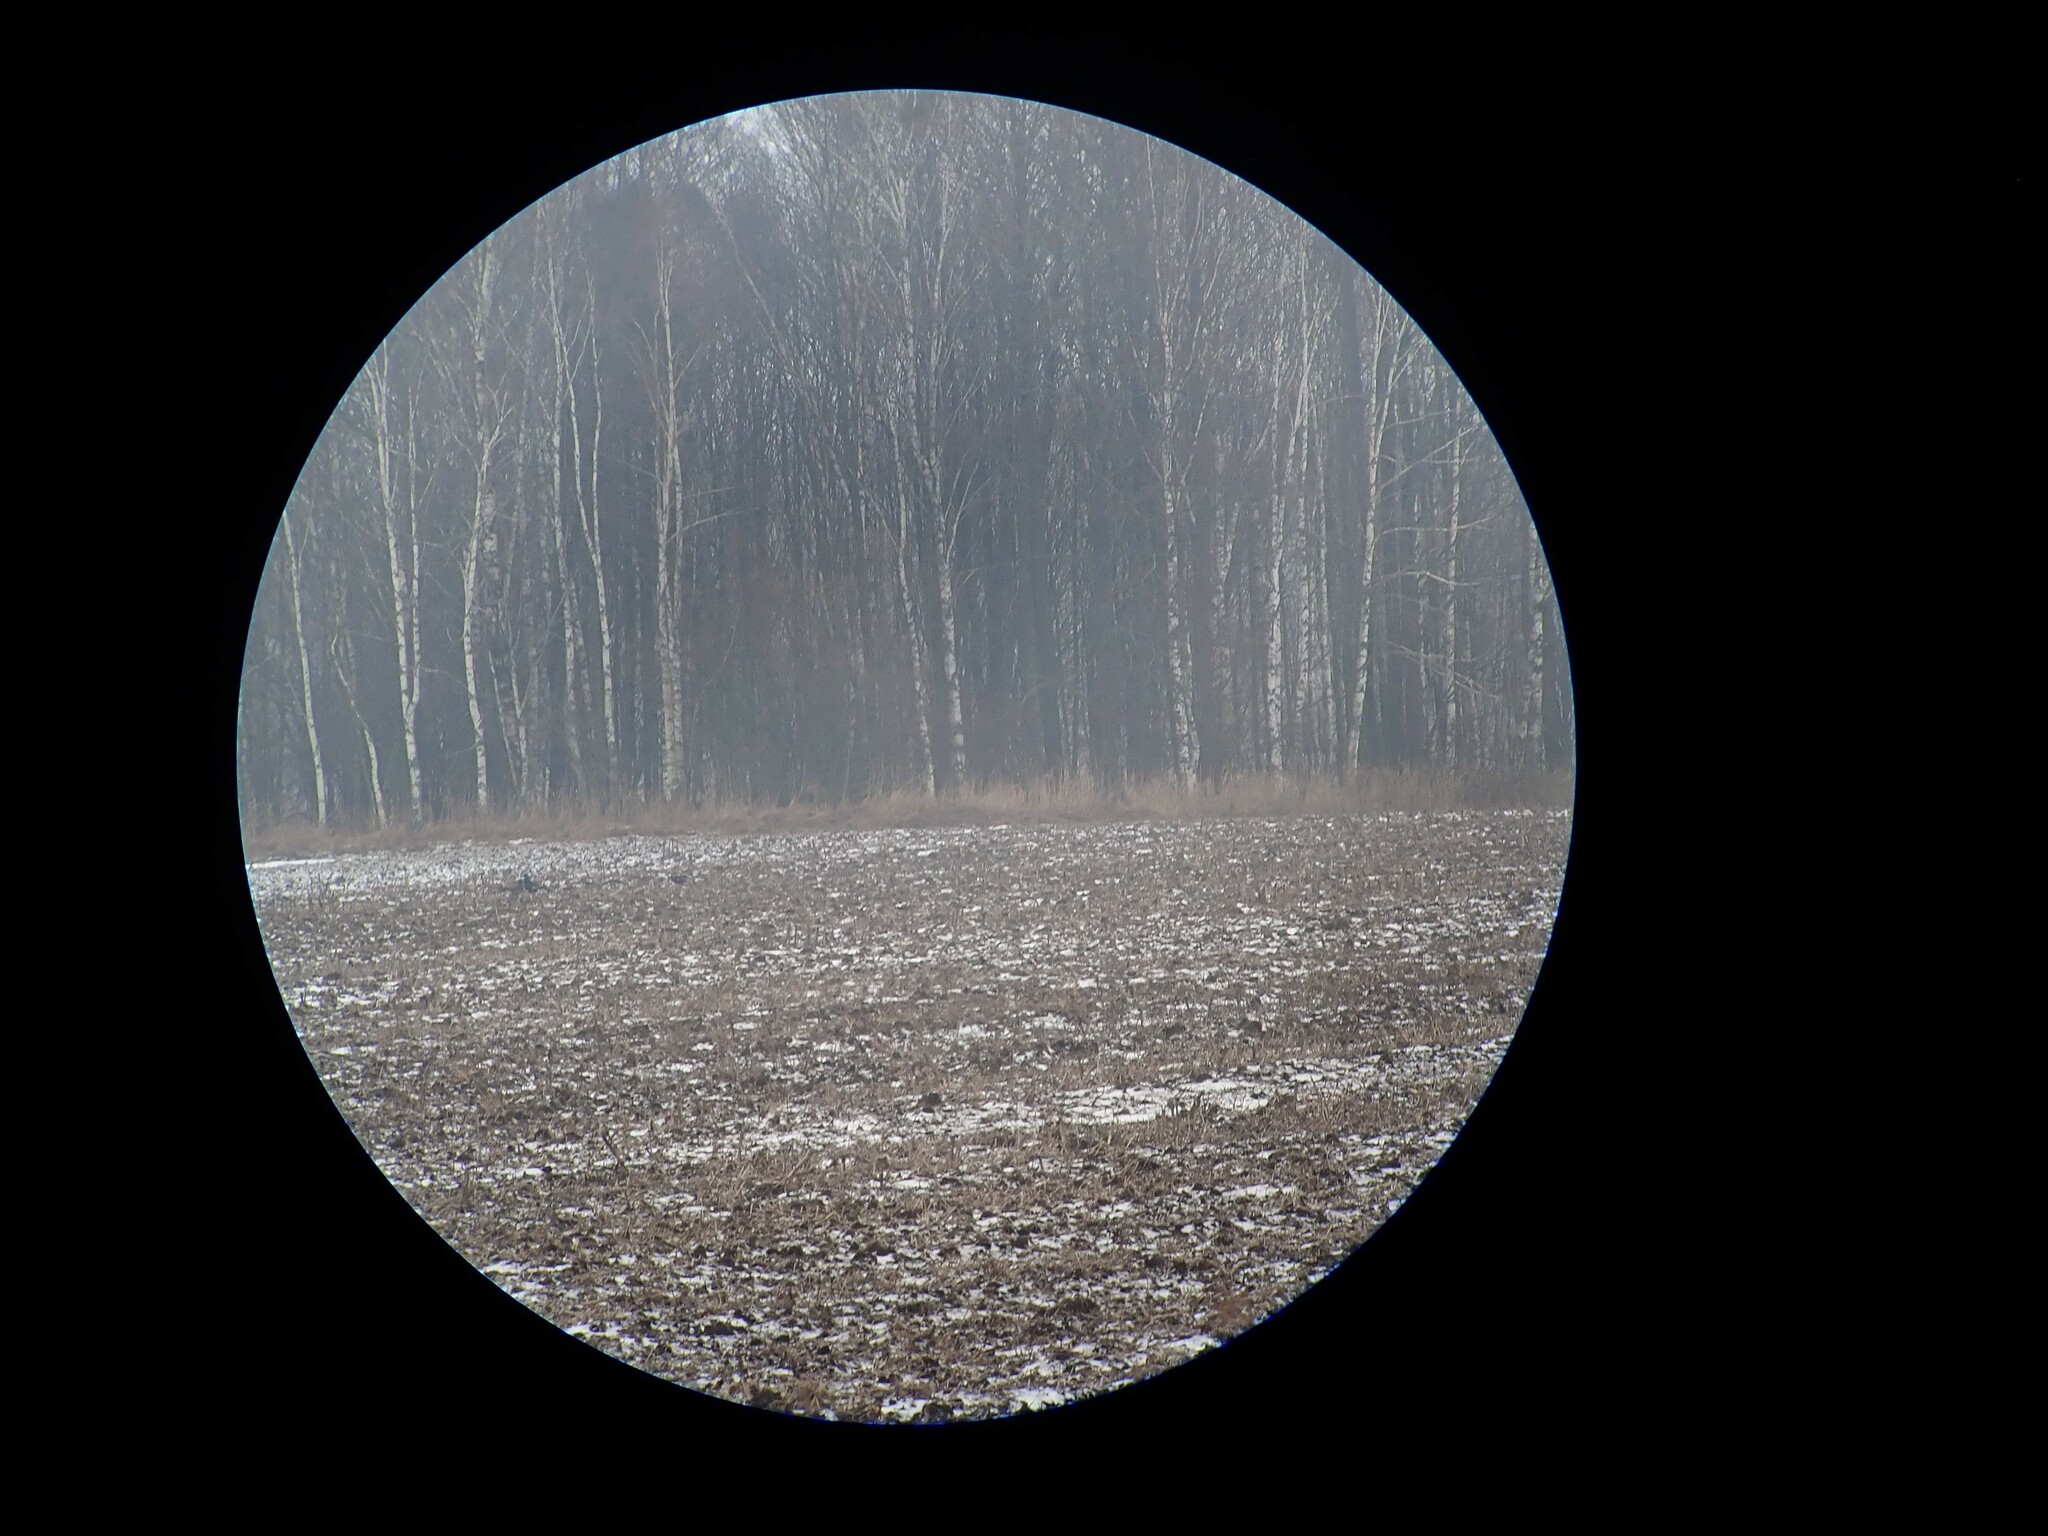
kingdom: Animalia
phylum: Chordata
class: Aves
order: Galliformes
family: Phasianidae
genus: Lyrurus
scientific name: Lyrurus tetrix
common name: Black grouse
